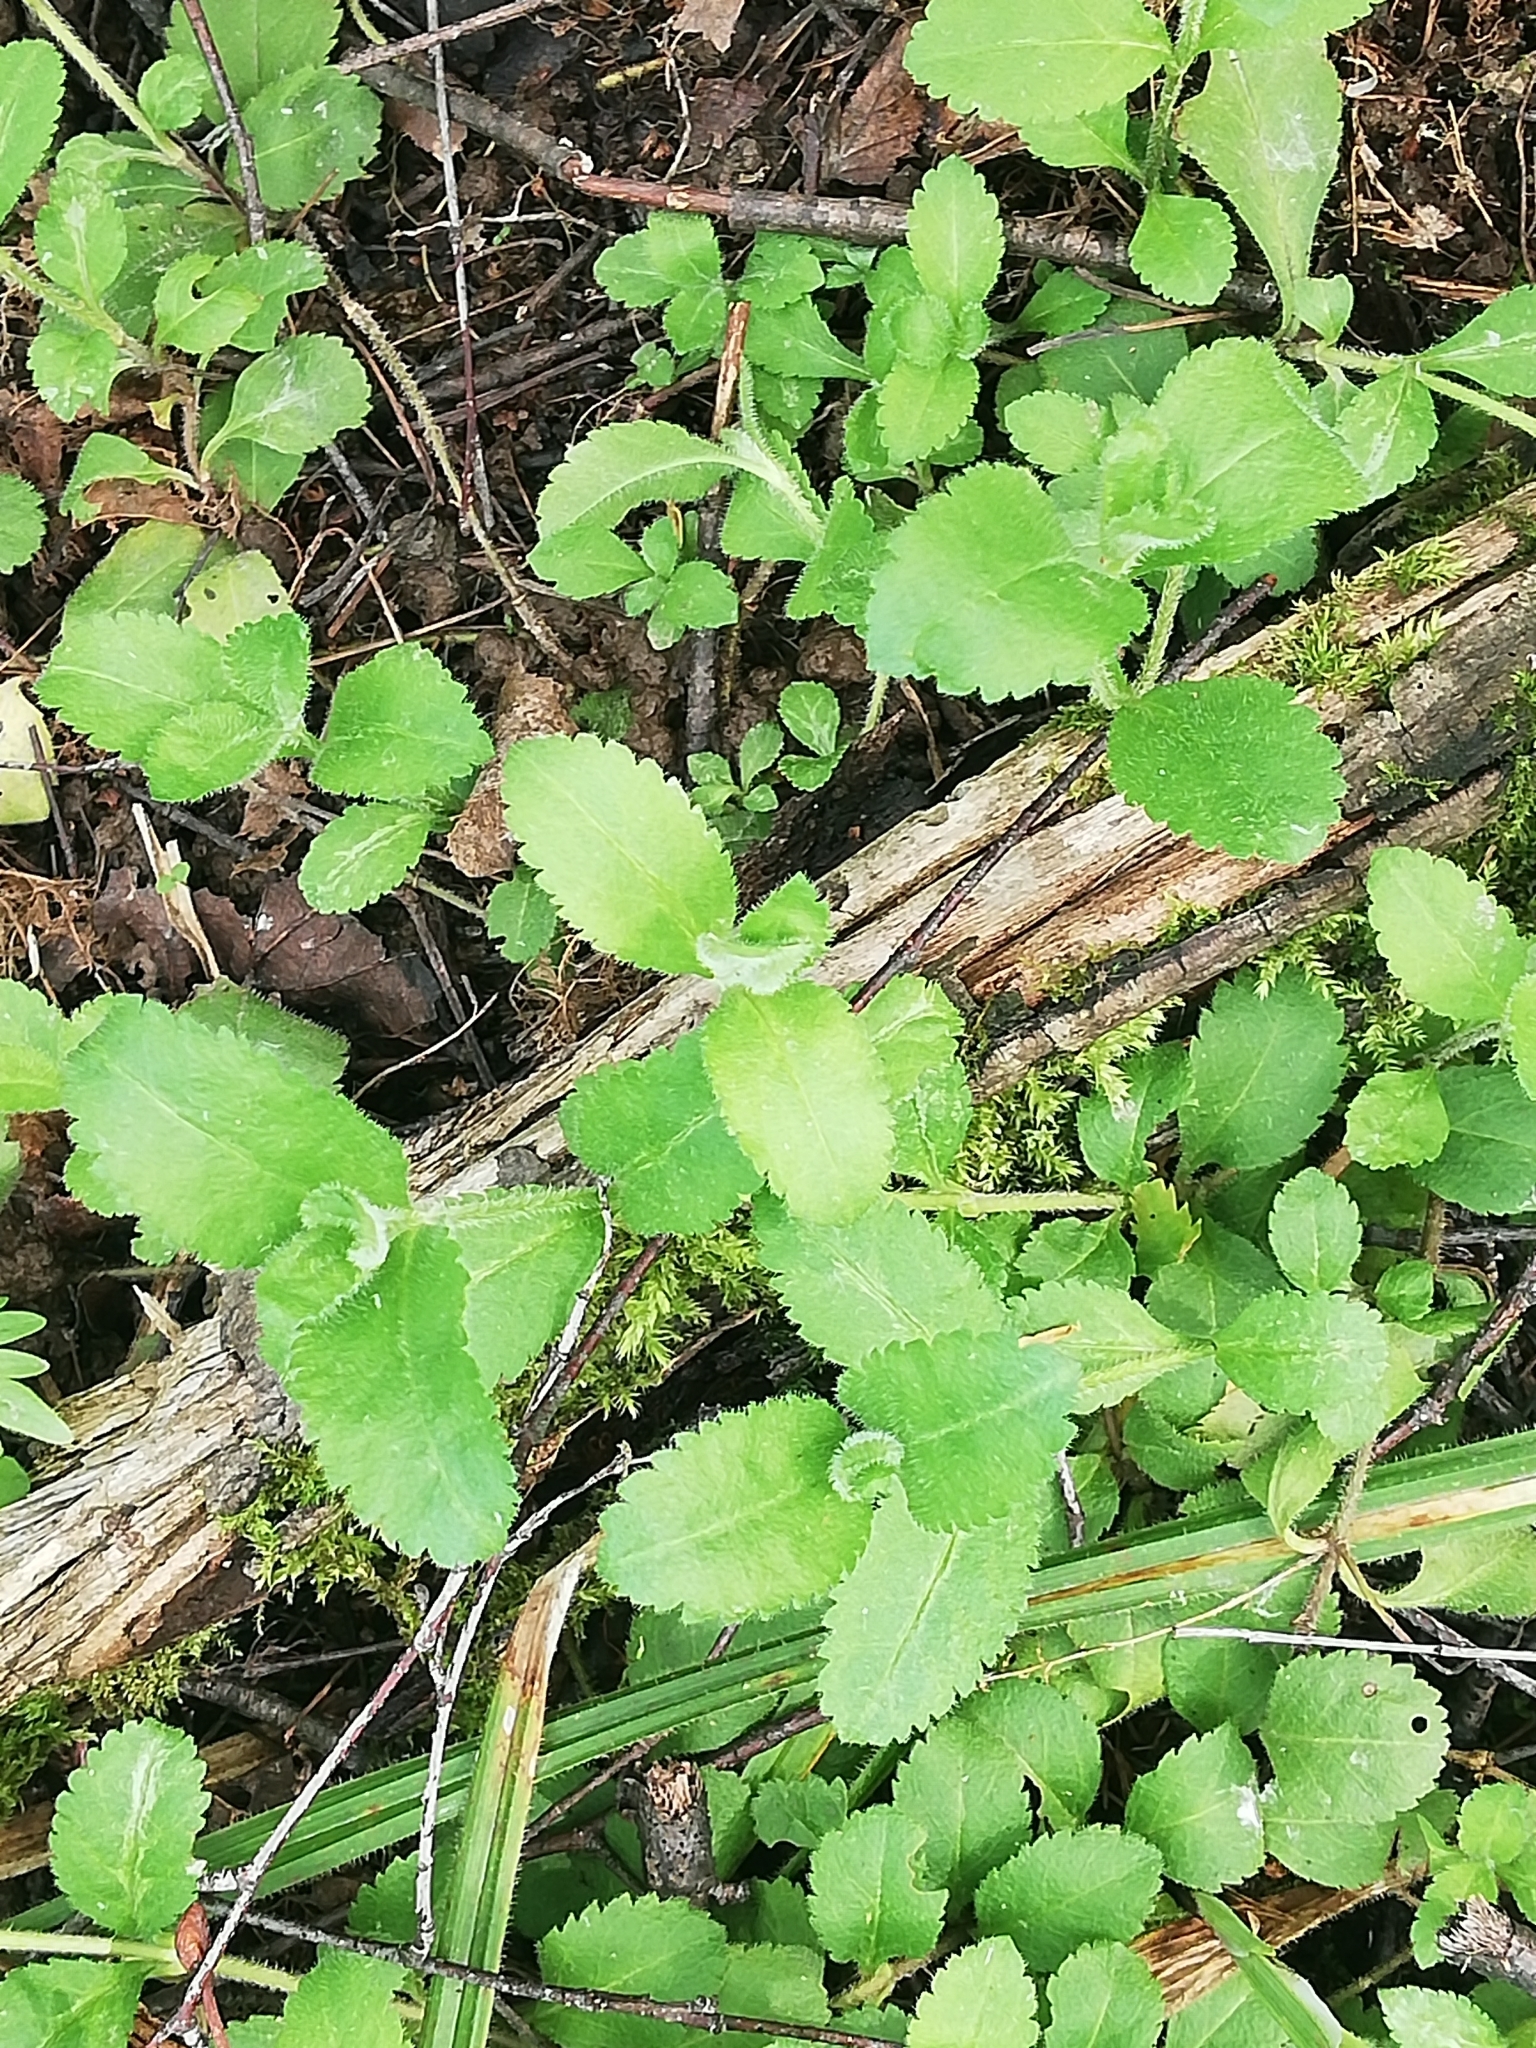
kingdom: Plantae
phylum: Tracheophyta
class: Magnoliopsida
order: Lamiales
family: Plantaginaceae
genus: Veronica
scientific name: Veronica officinalis
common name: Common speedwell
